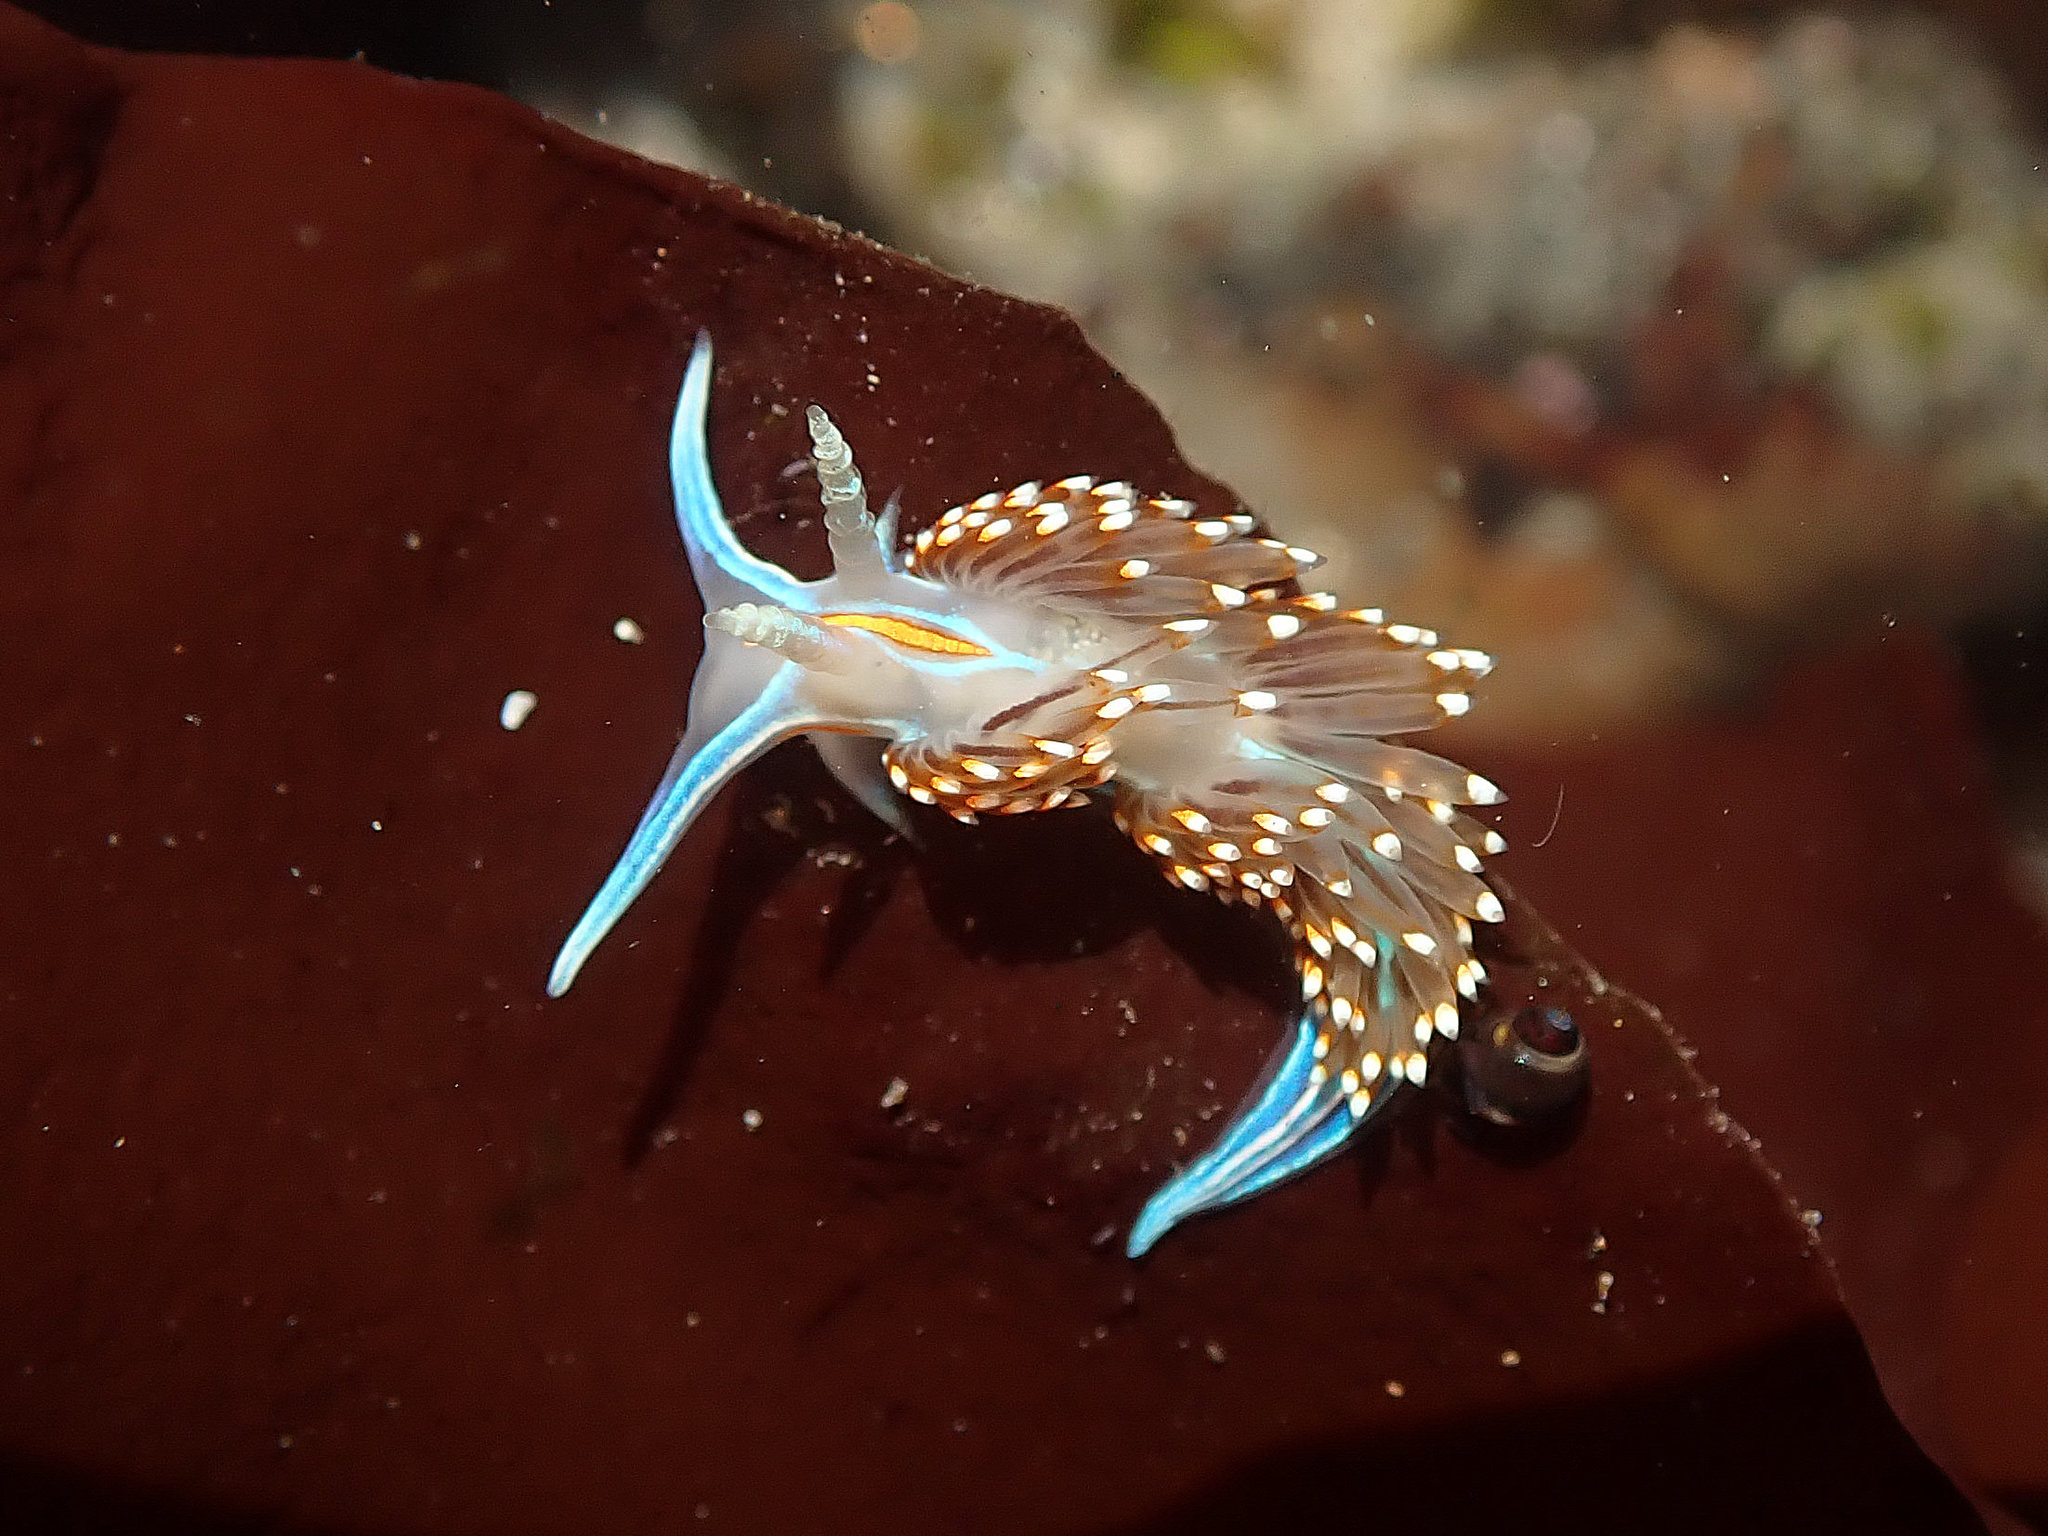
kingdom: Animalia
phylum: Mollusca
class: Gastropoda
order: Nudibranchia
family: Myrrhinidae
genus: Hermissenda
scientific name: Hermissenda opalescens
